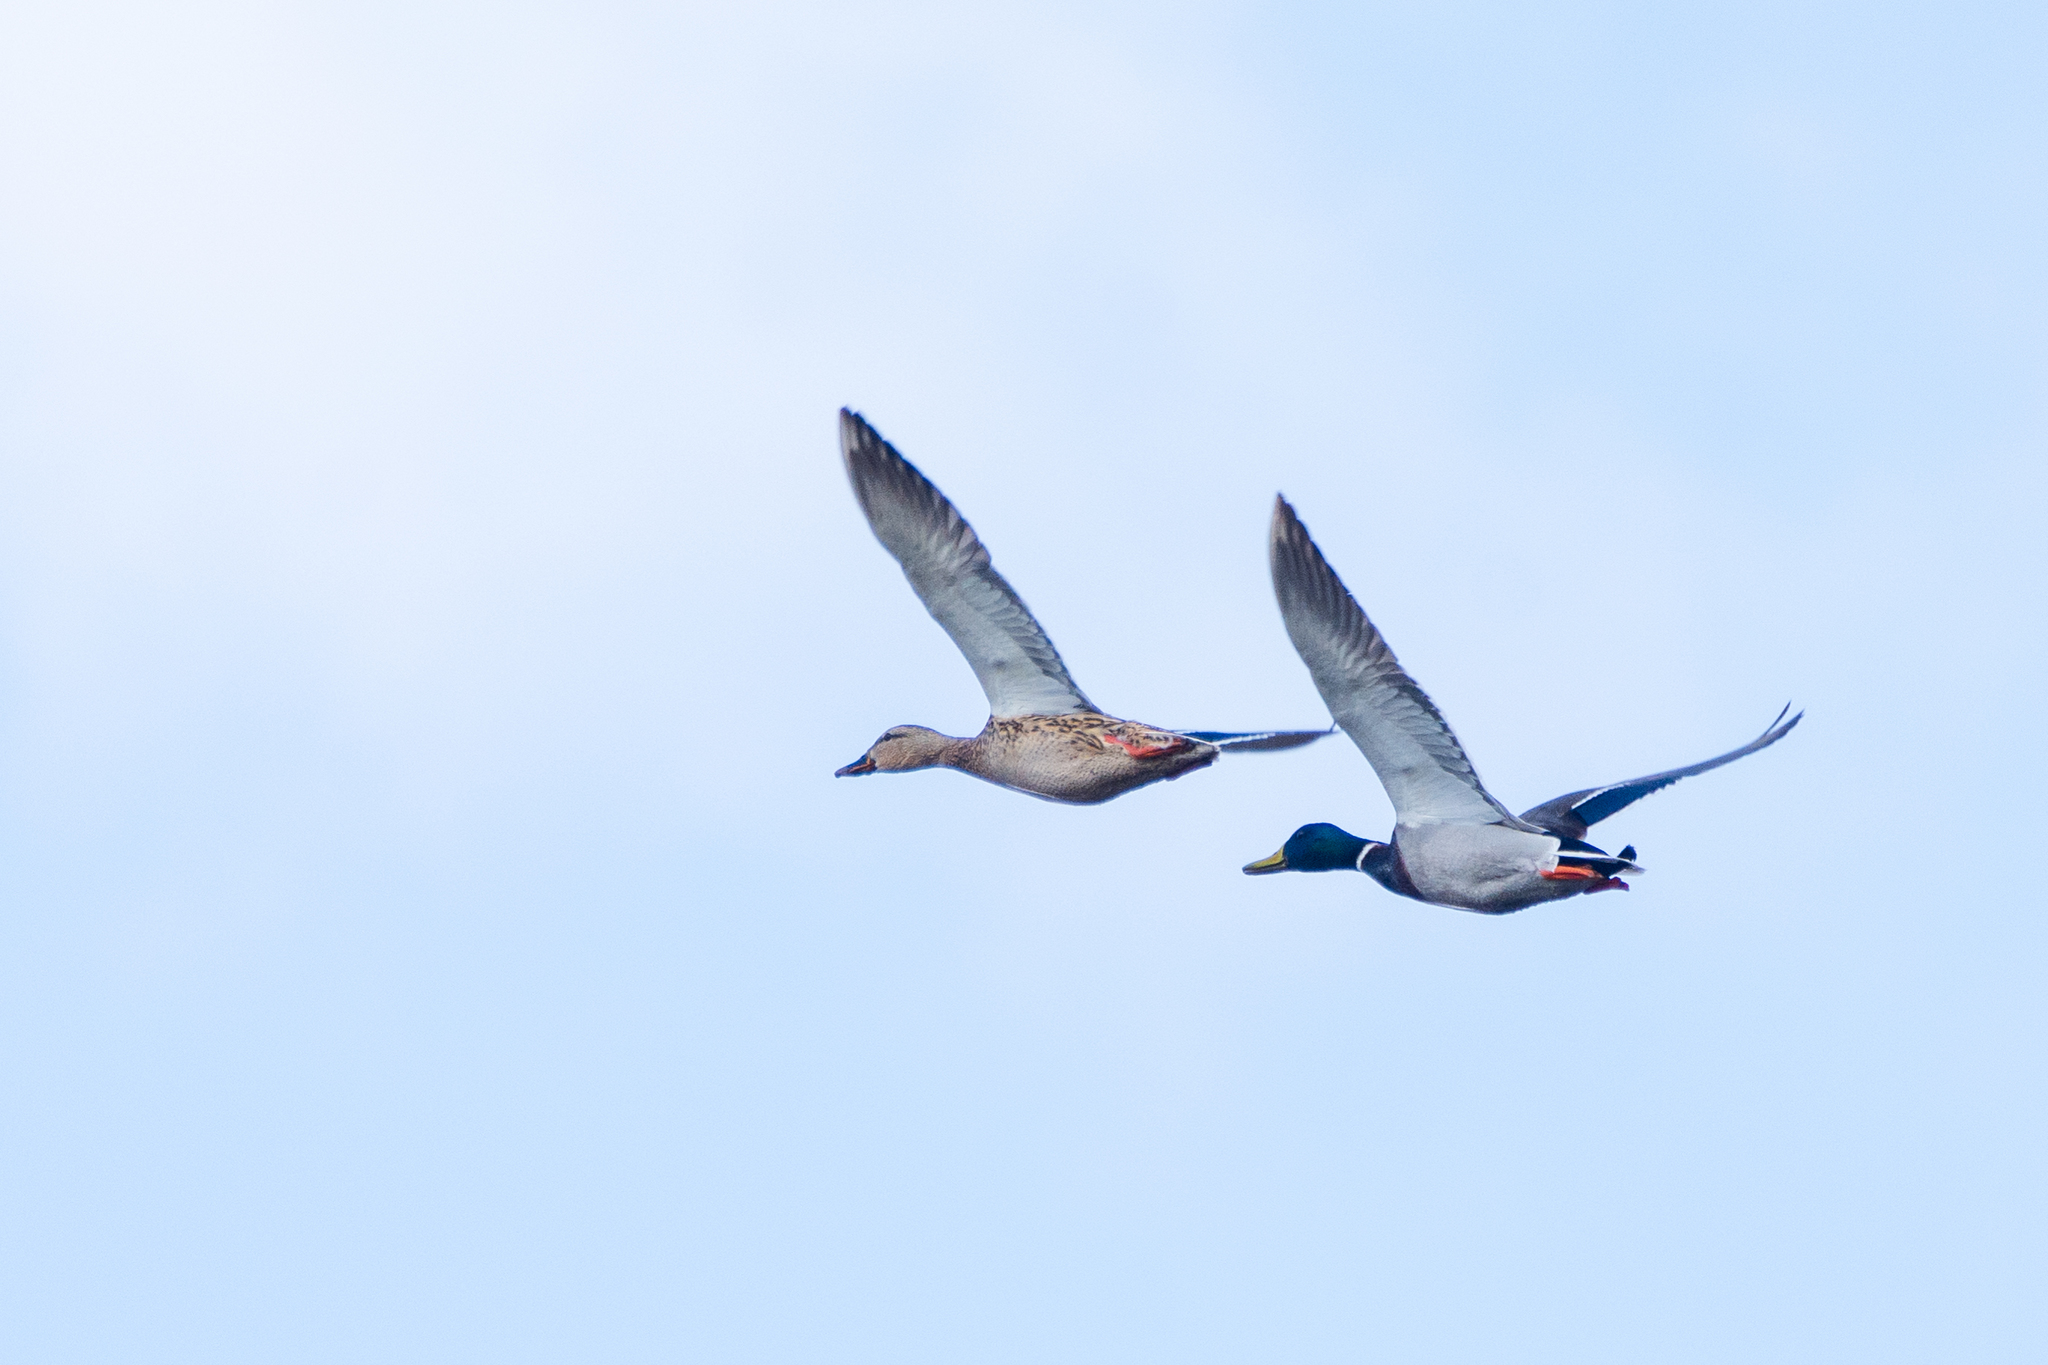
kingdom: Animalia
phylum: Chordata
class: Aves
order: Anseriformes
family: Anatidae
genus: Anas
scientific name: Anas platyrhynchos
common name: Mallard
